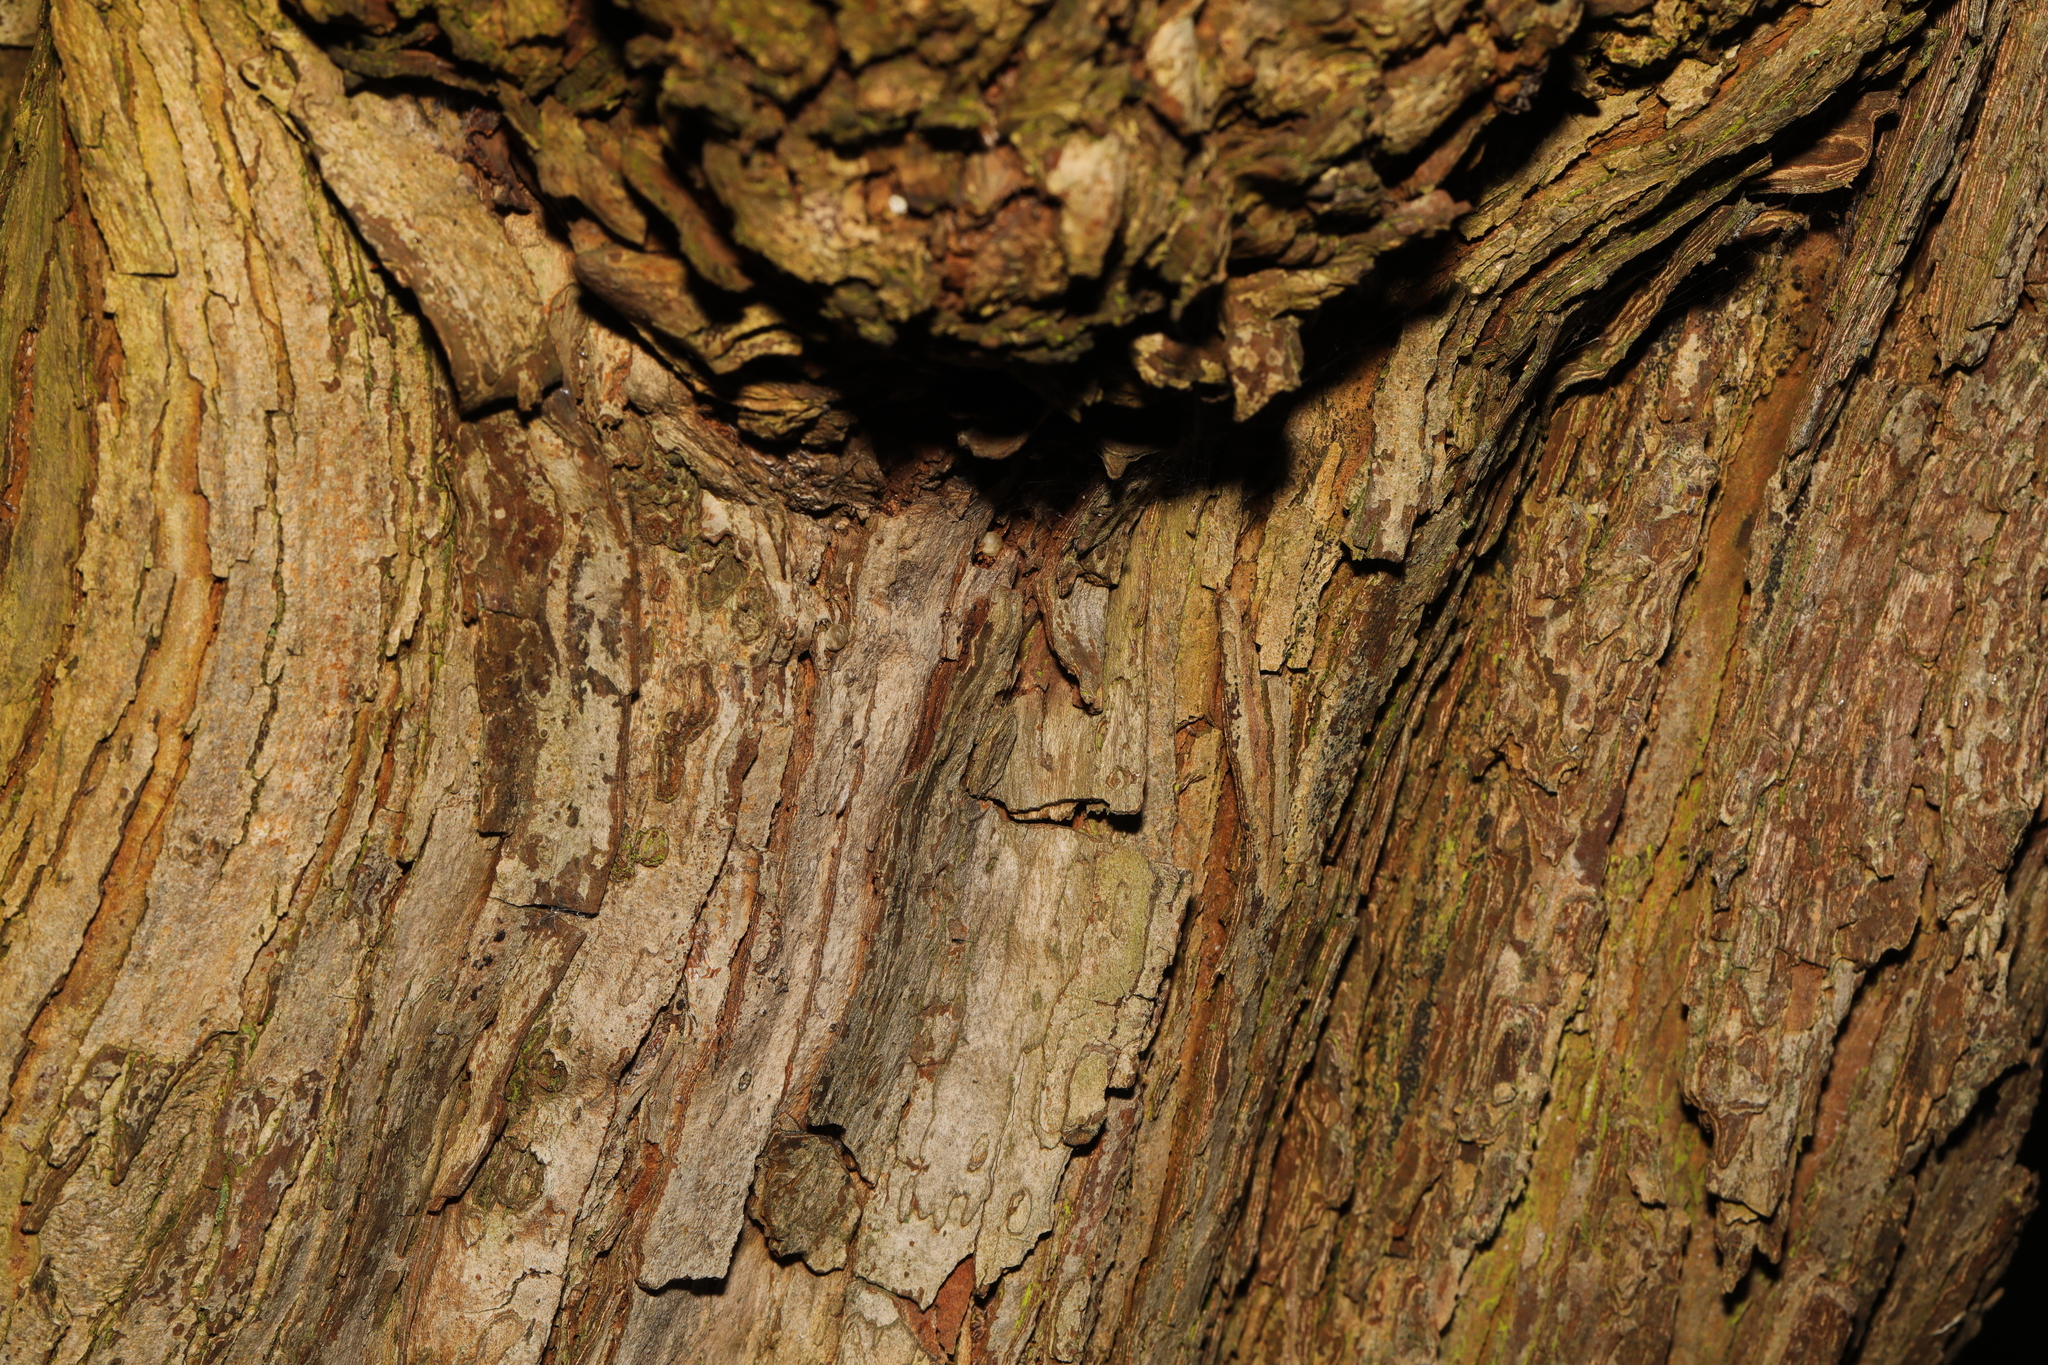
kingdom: Plantae
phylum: Tracheophyta
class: Magnoliopsida
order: Rosales
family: Rosaceae
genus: Crataegus
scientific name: Crataegus monogyna
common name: Hawthorn
